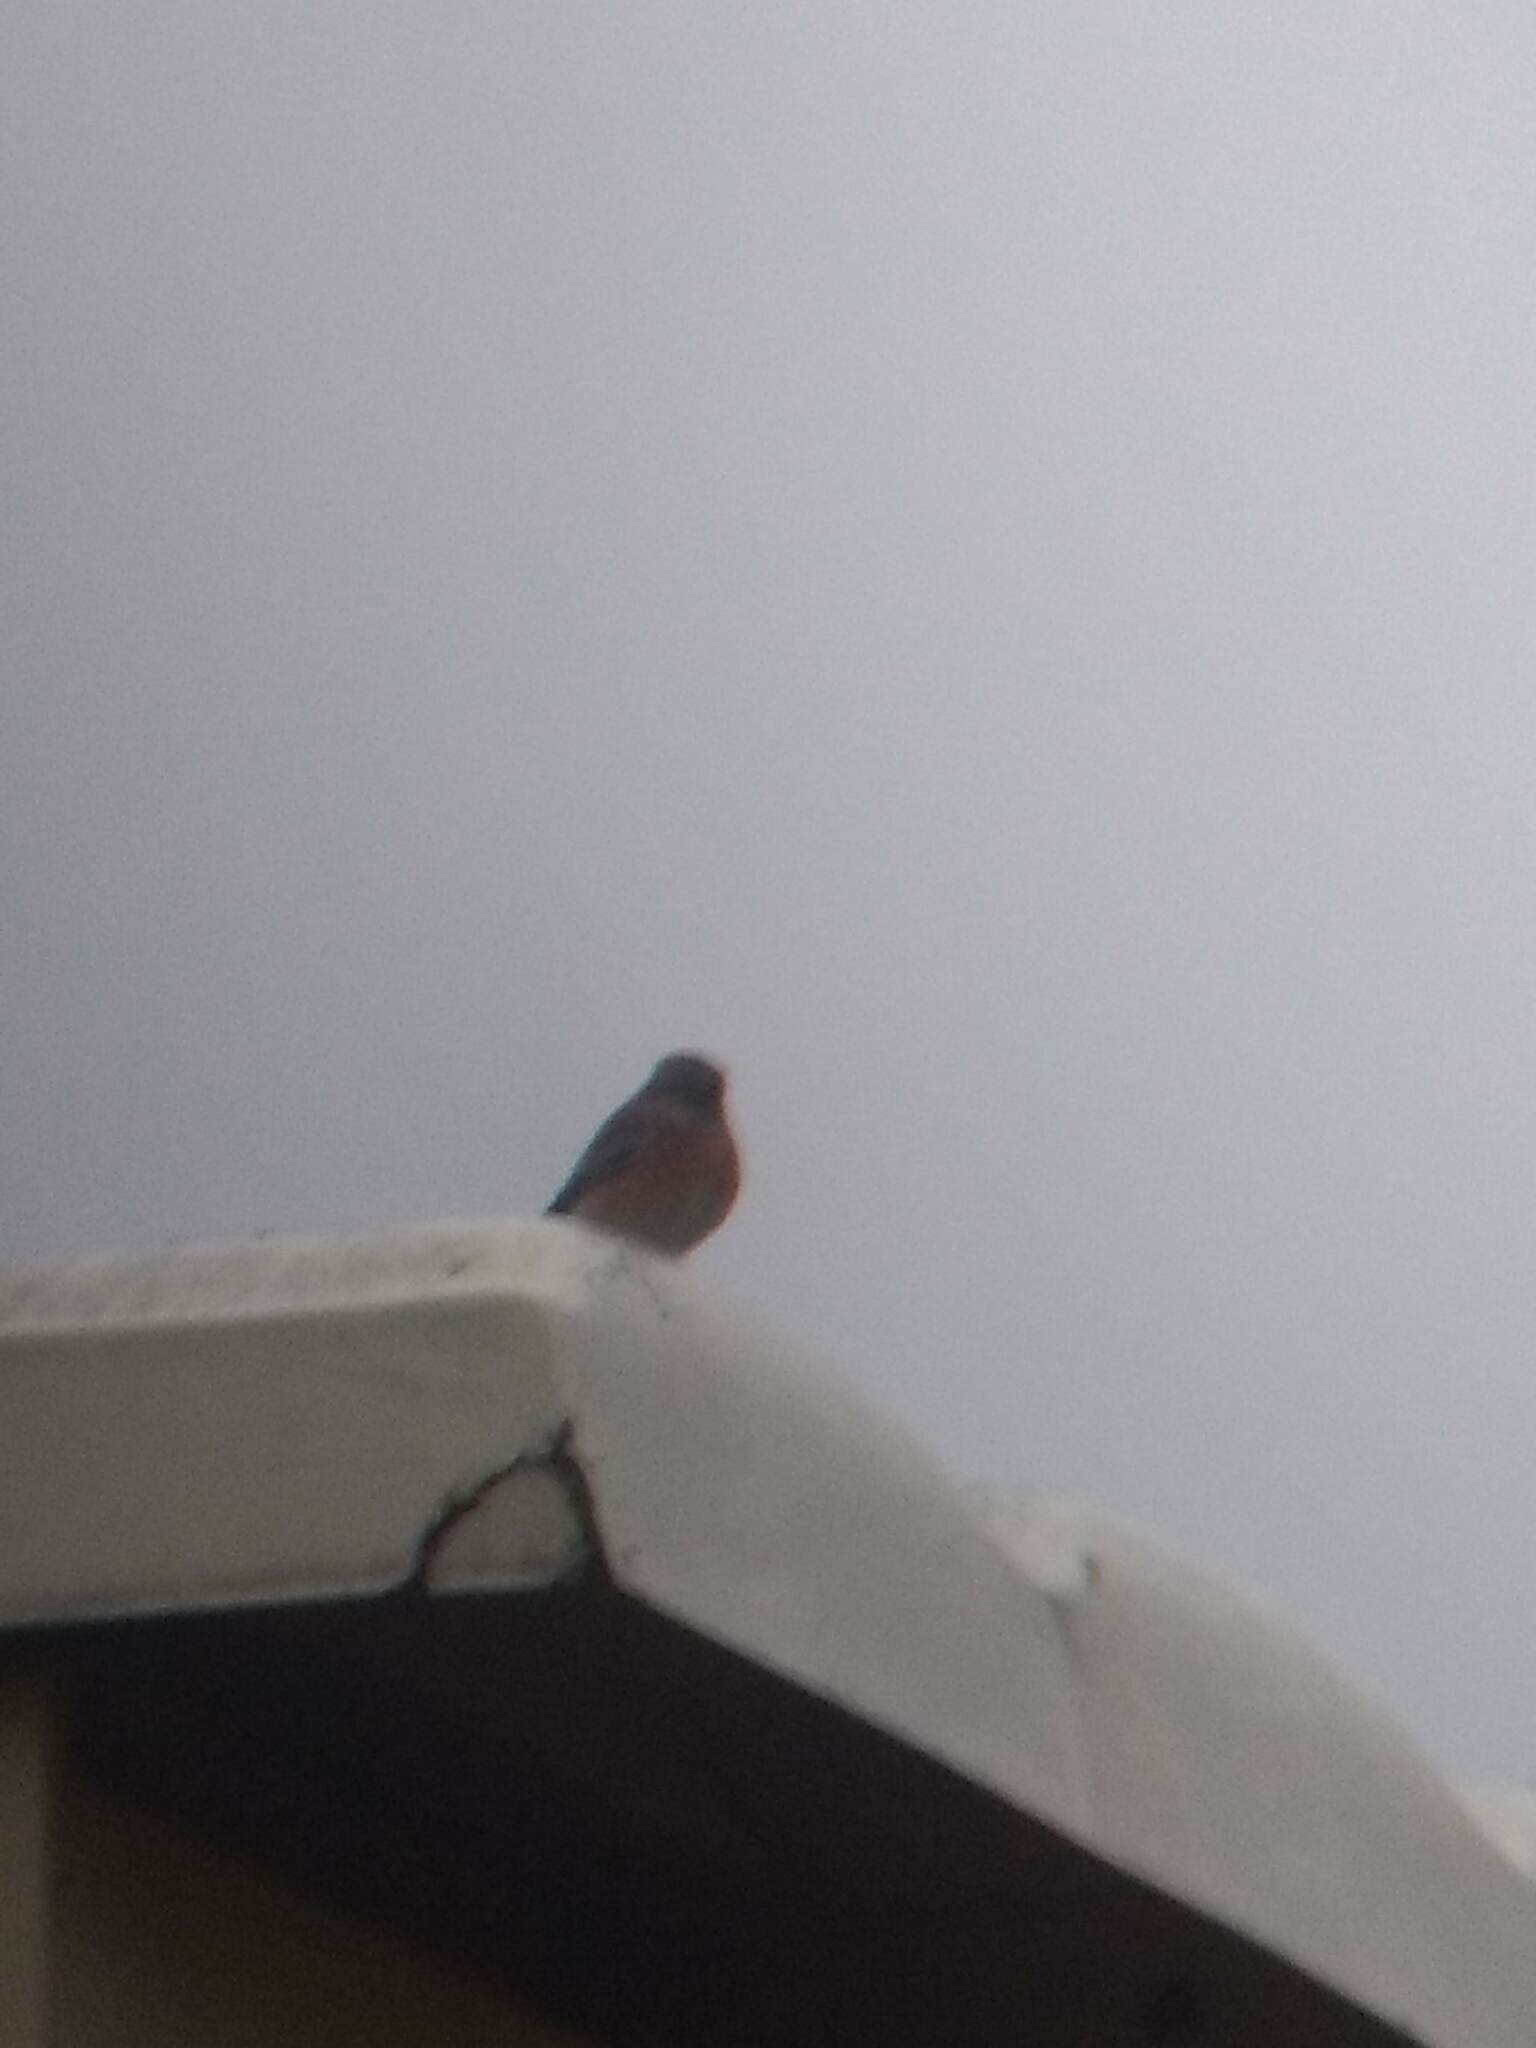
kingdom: Animalia
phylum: Chordata
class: Aves
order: Passeriformes
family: Turdidae
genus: Sialia
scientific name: Sialia mexicana
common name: Western bluebird
